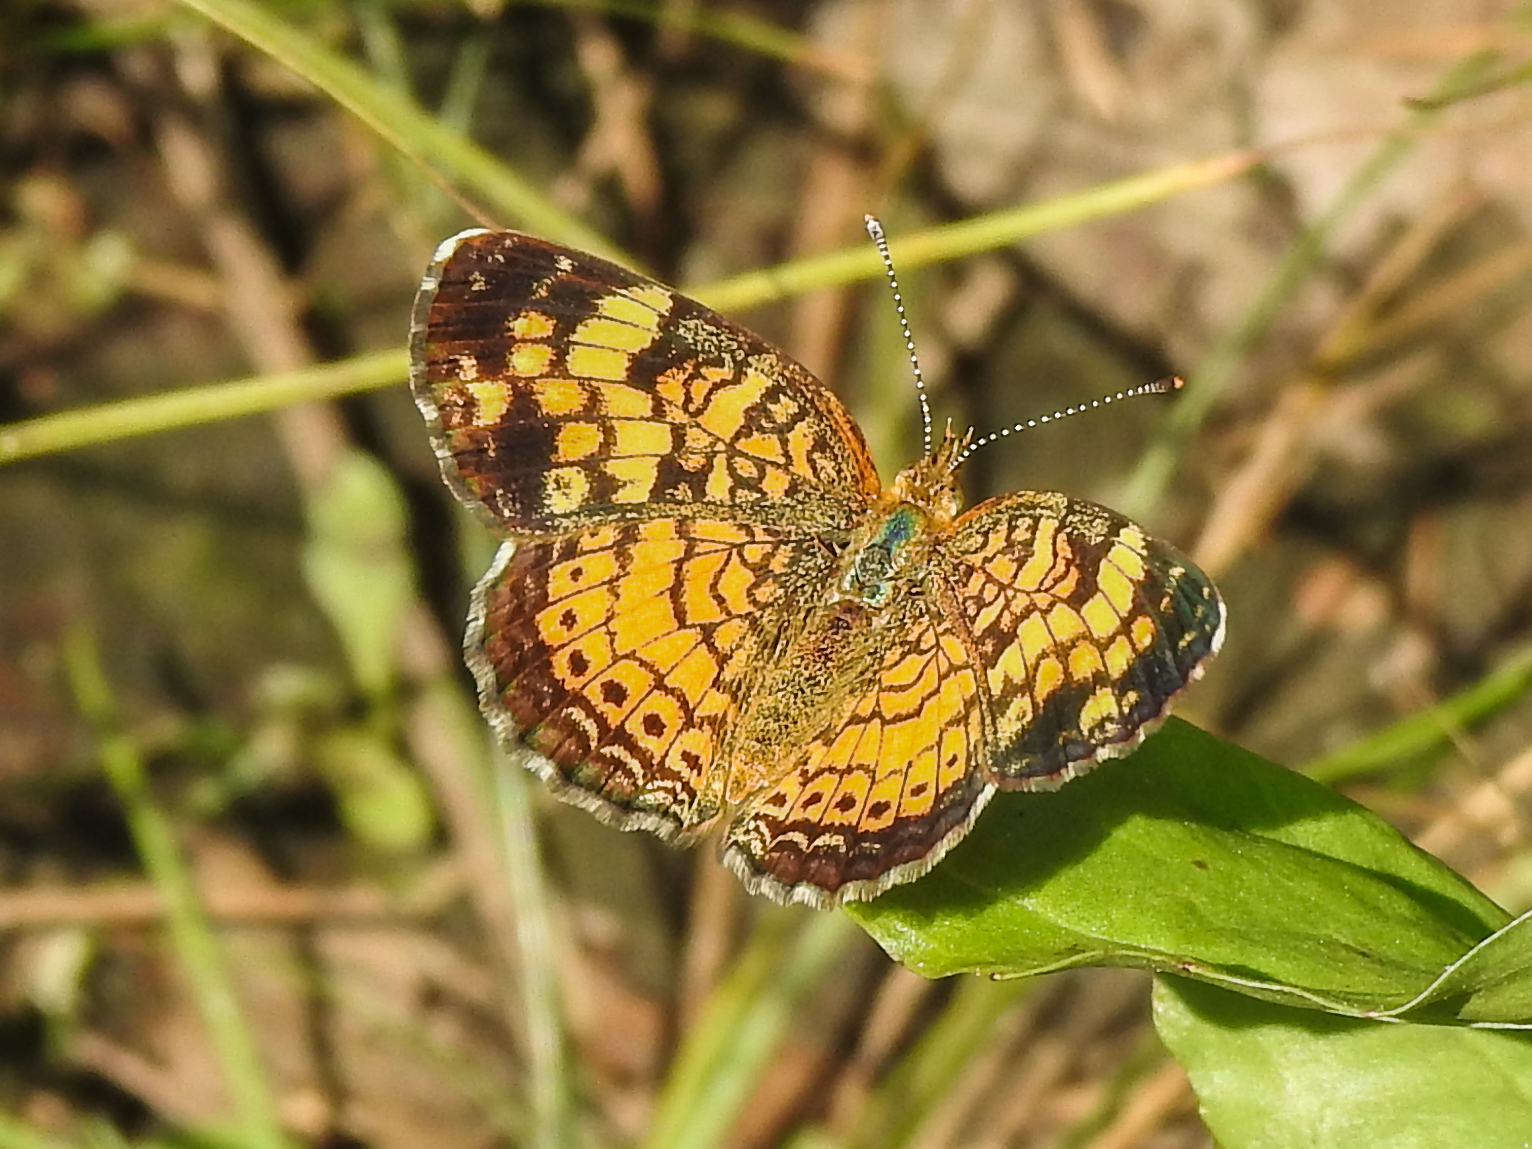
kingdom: Animalia
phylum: Arthropoda
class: Insecta
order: Lepidoptera
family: Nymphalidae
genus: Phyciodes
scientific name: Phyciodes tharos
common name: Pearl crescent
